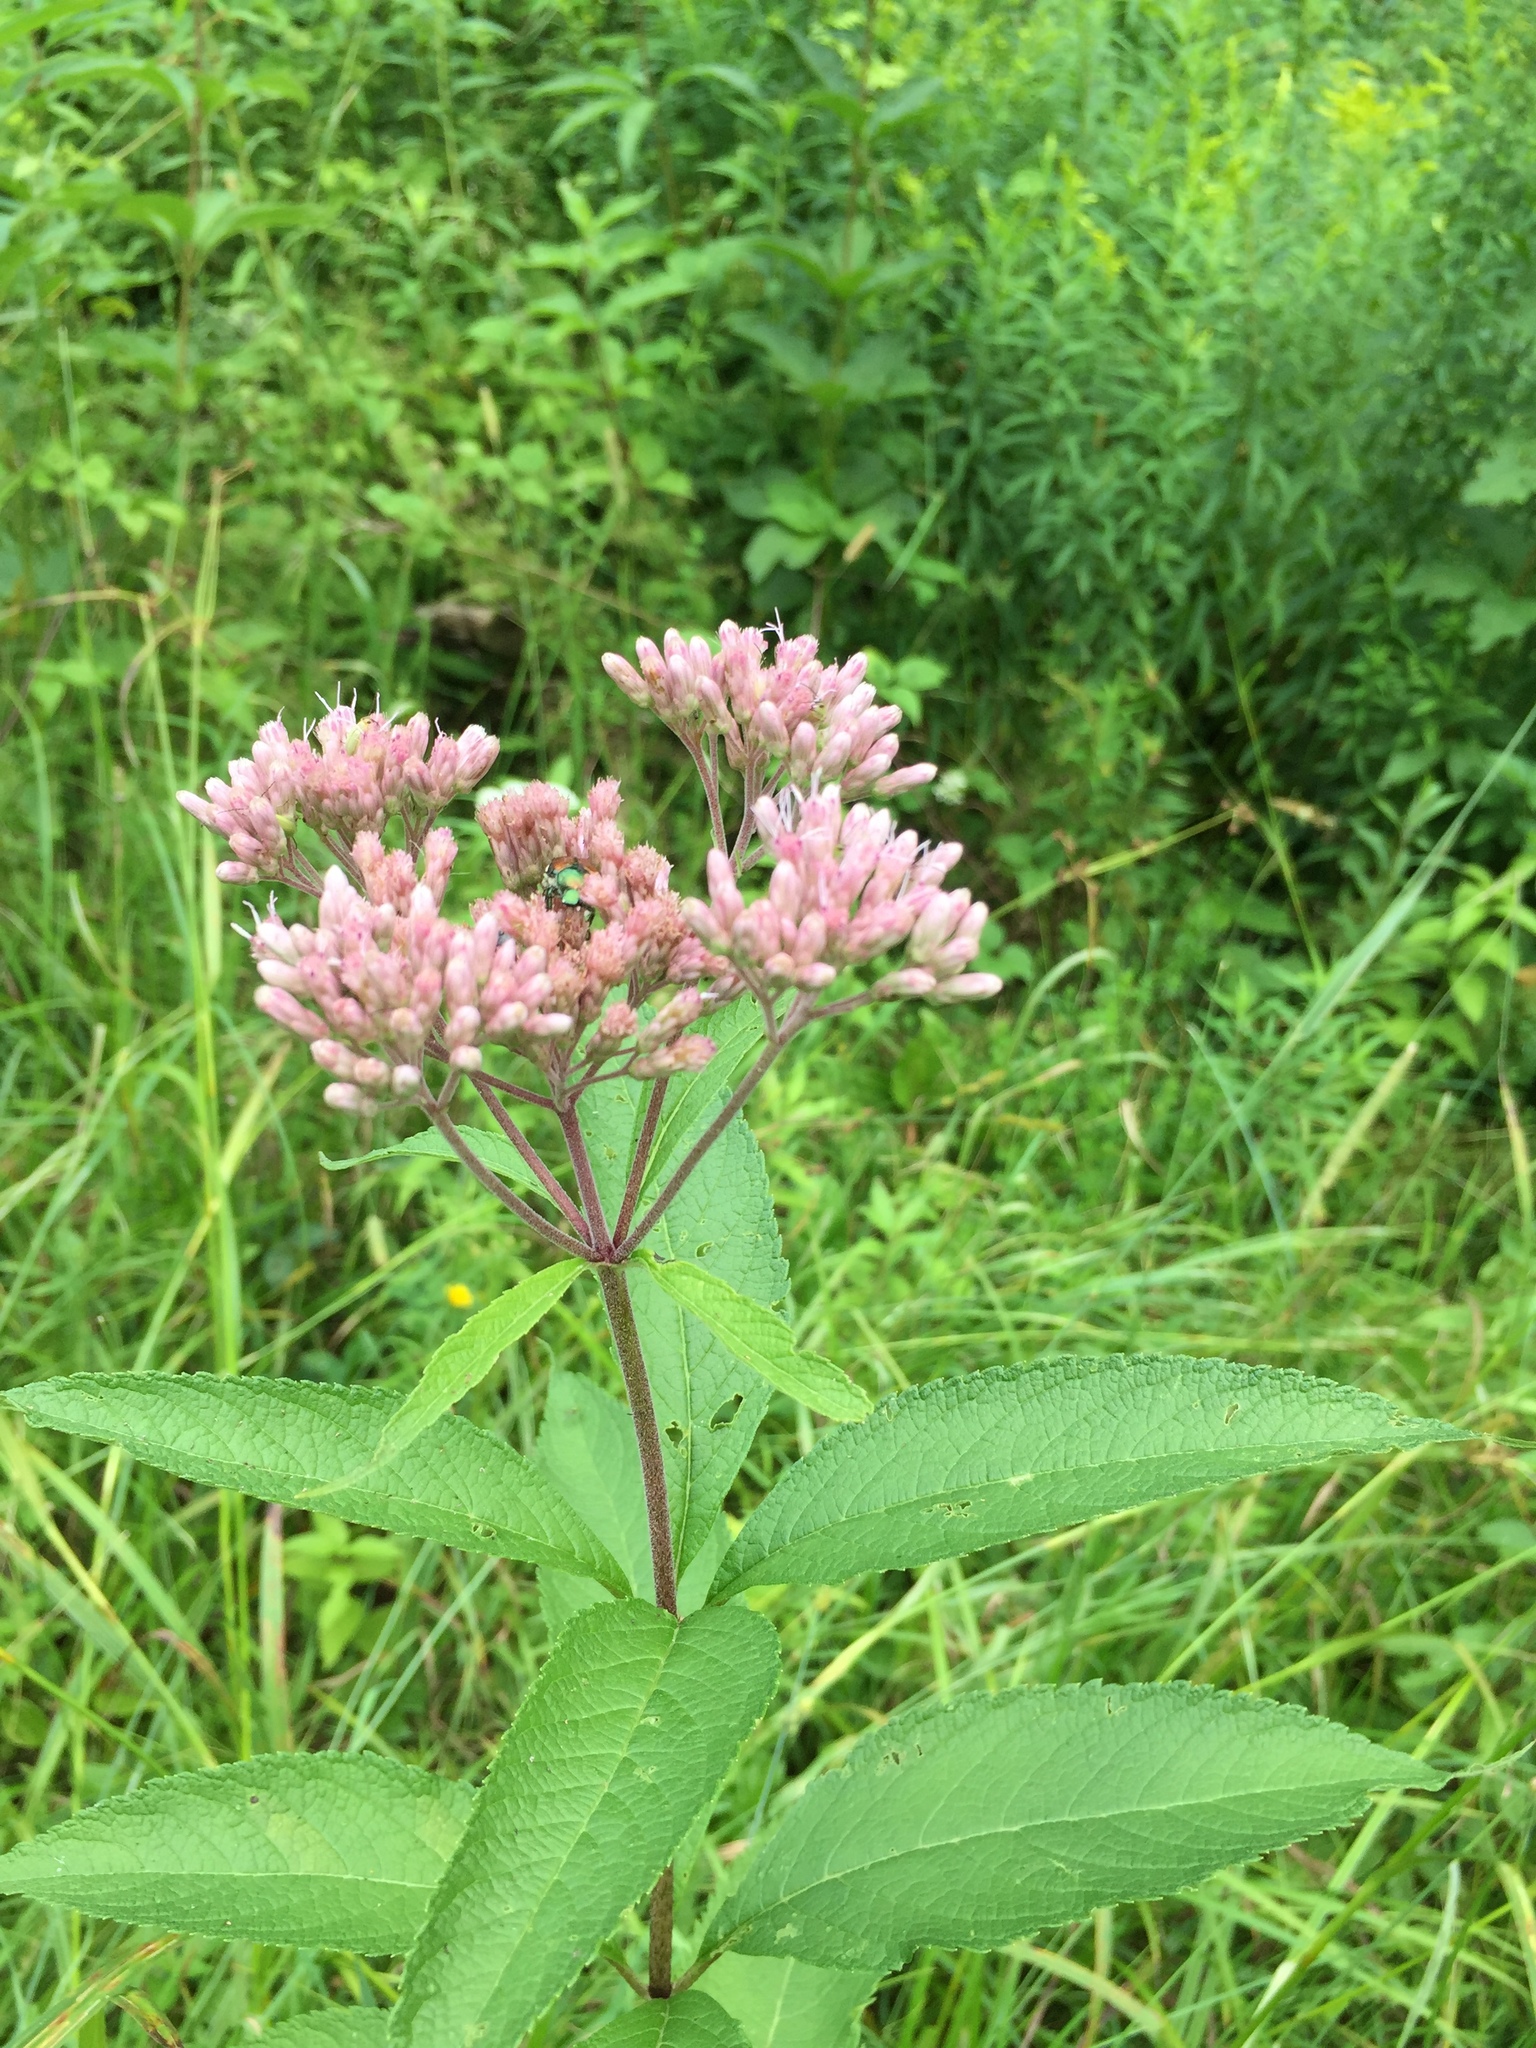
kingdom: Plantae
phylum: Tracheophyta
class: Magnoliopsida
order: Asterales
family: Asteraceae
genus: Eutrochium
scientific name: Eutrochium maculatum
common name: Spotted joe pye weed
